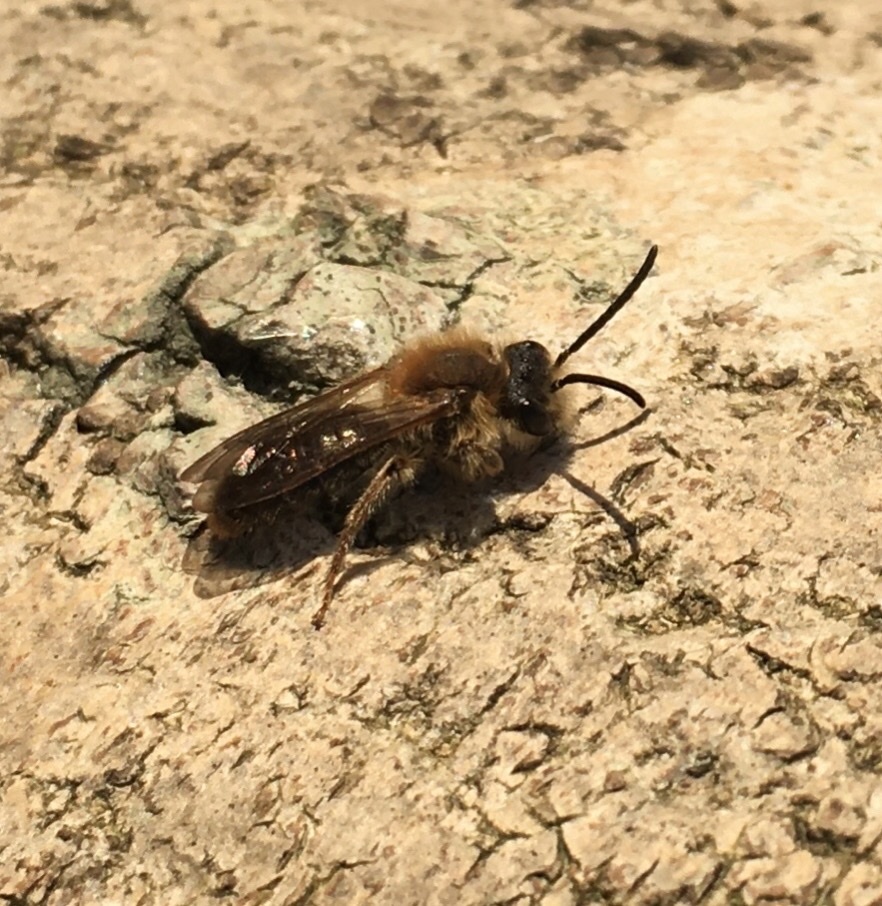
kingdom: Animalia
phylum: Arthropoda
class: Insecta
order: Hymenoptera
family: Andrenidae
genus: Andrena
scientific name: Andrena haemorrhoa
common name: Early mining bee
